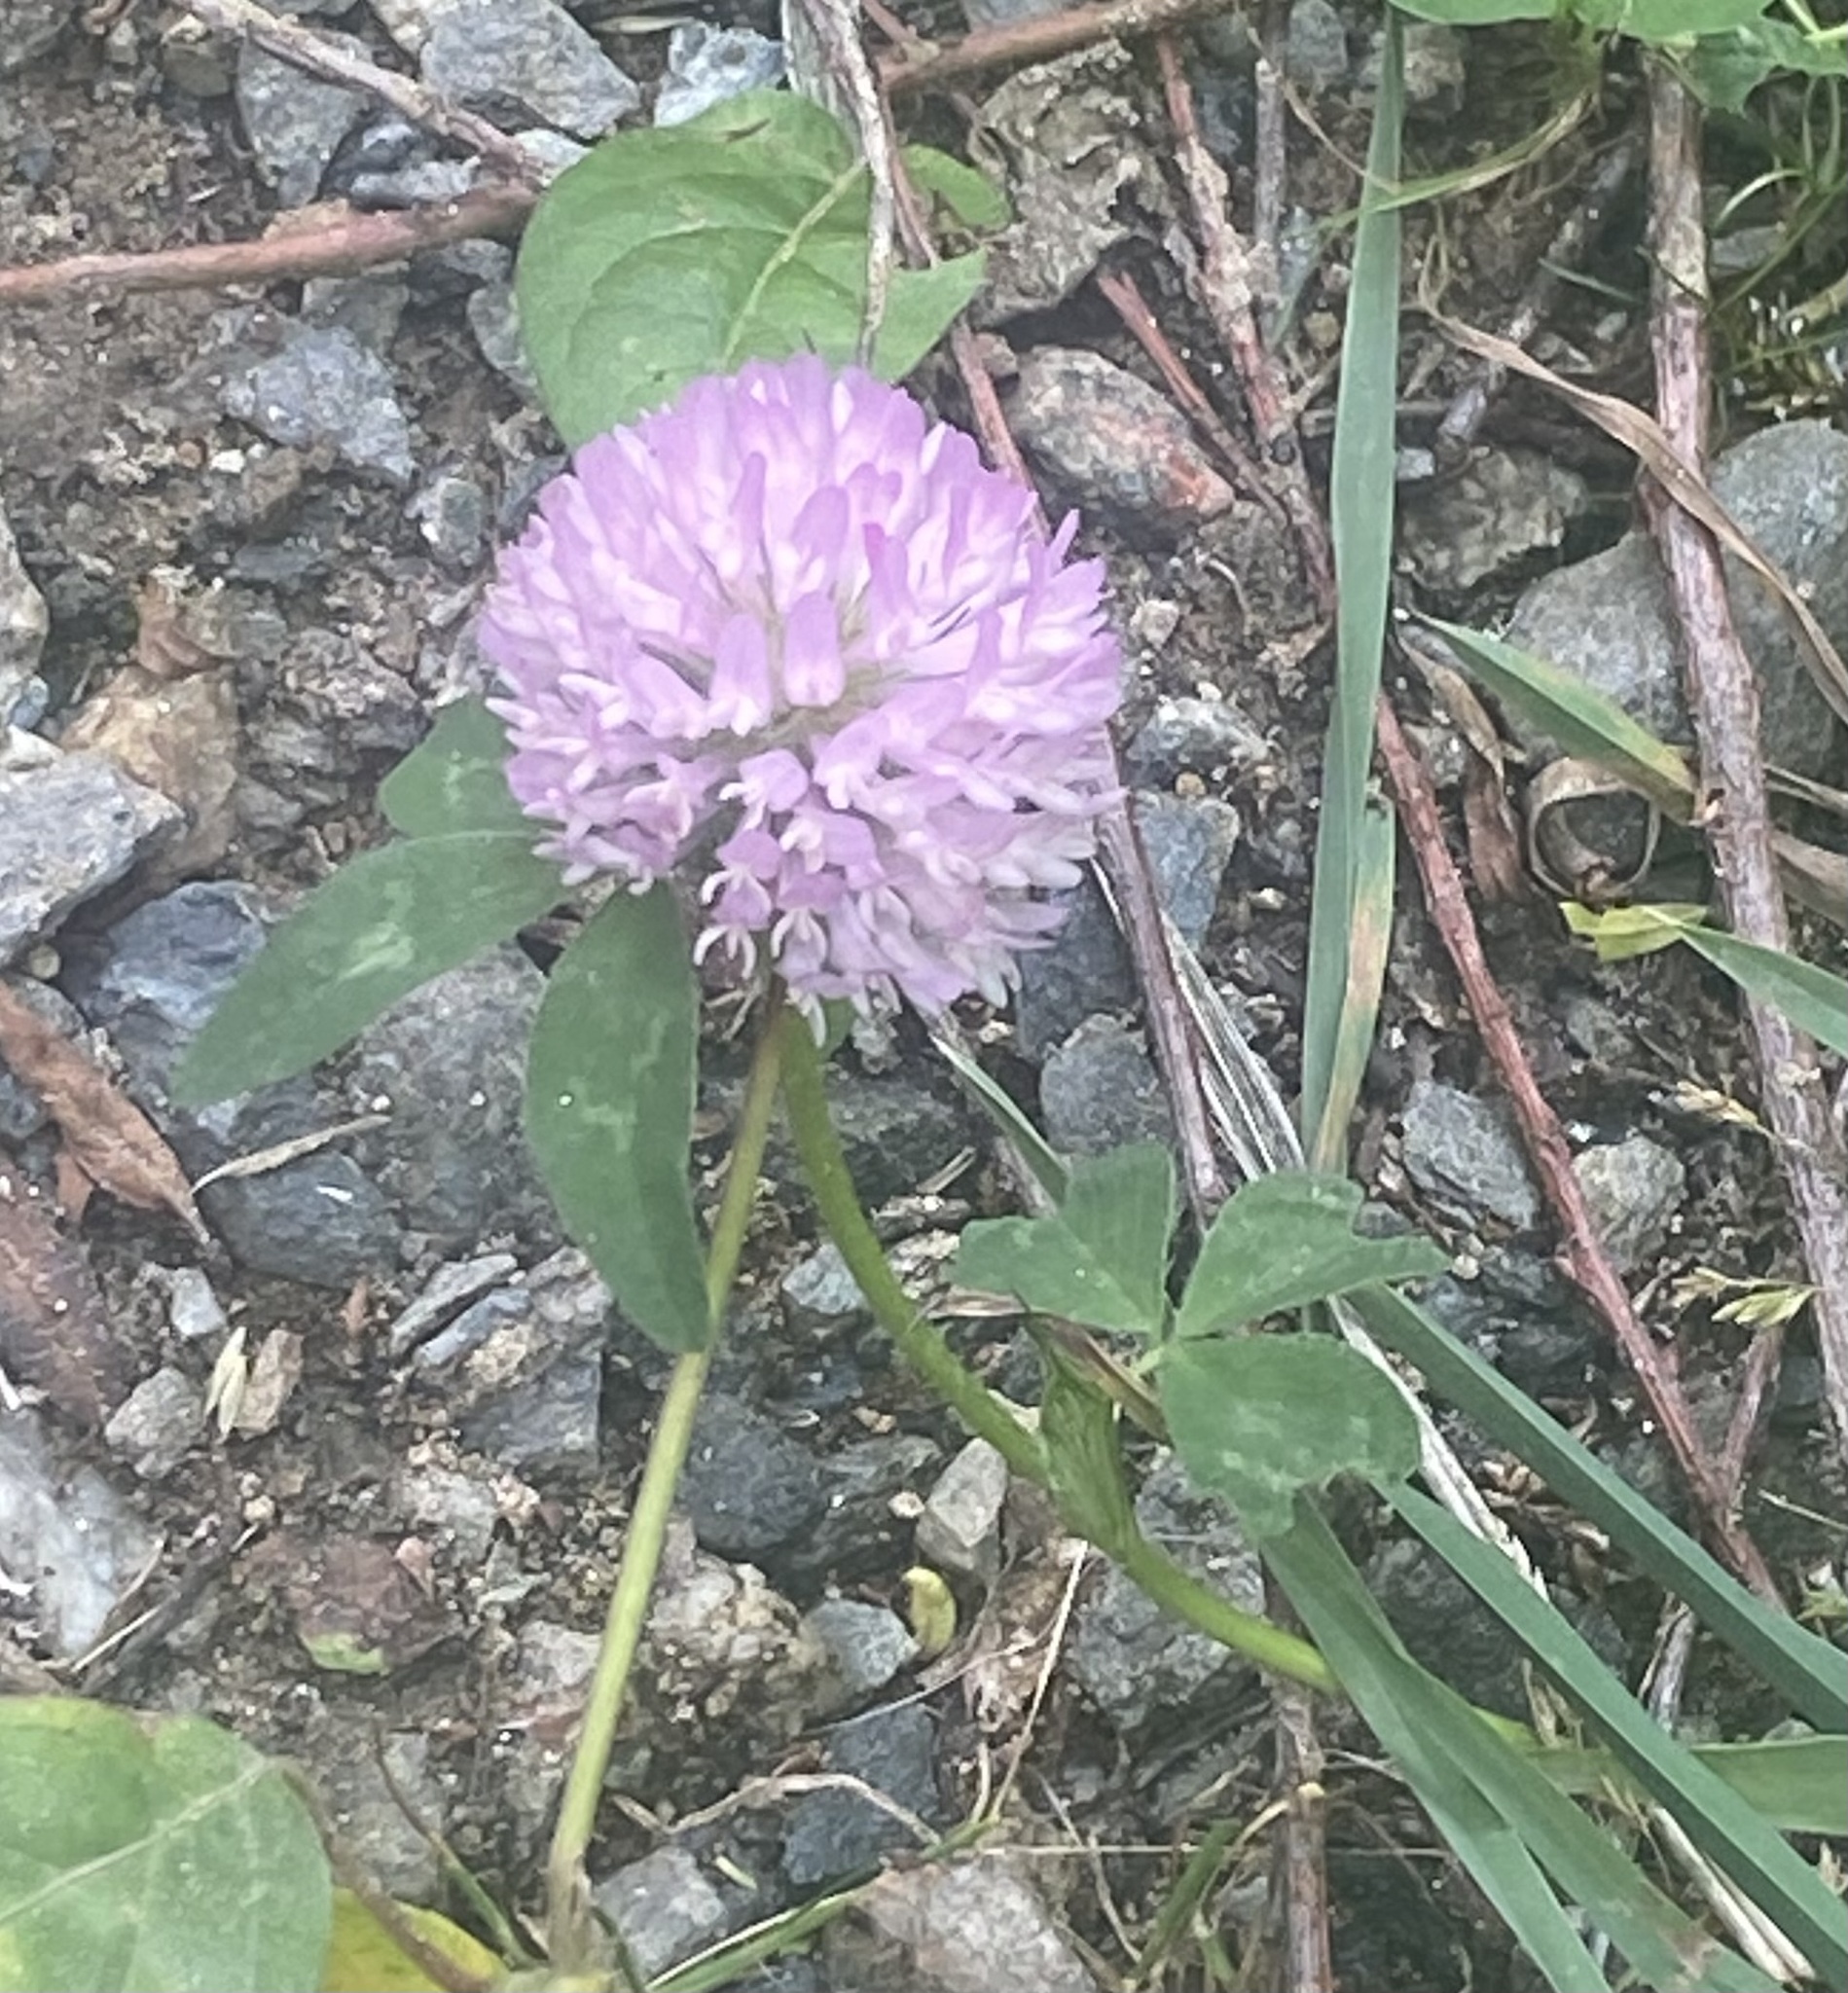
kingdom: Plantae
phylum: Tracheophyta
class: Magnoliopsida
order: Fabales
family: Fabaceae
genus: Trifolium
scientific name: Trifolium pratense
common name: Red clover
